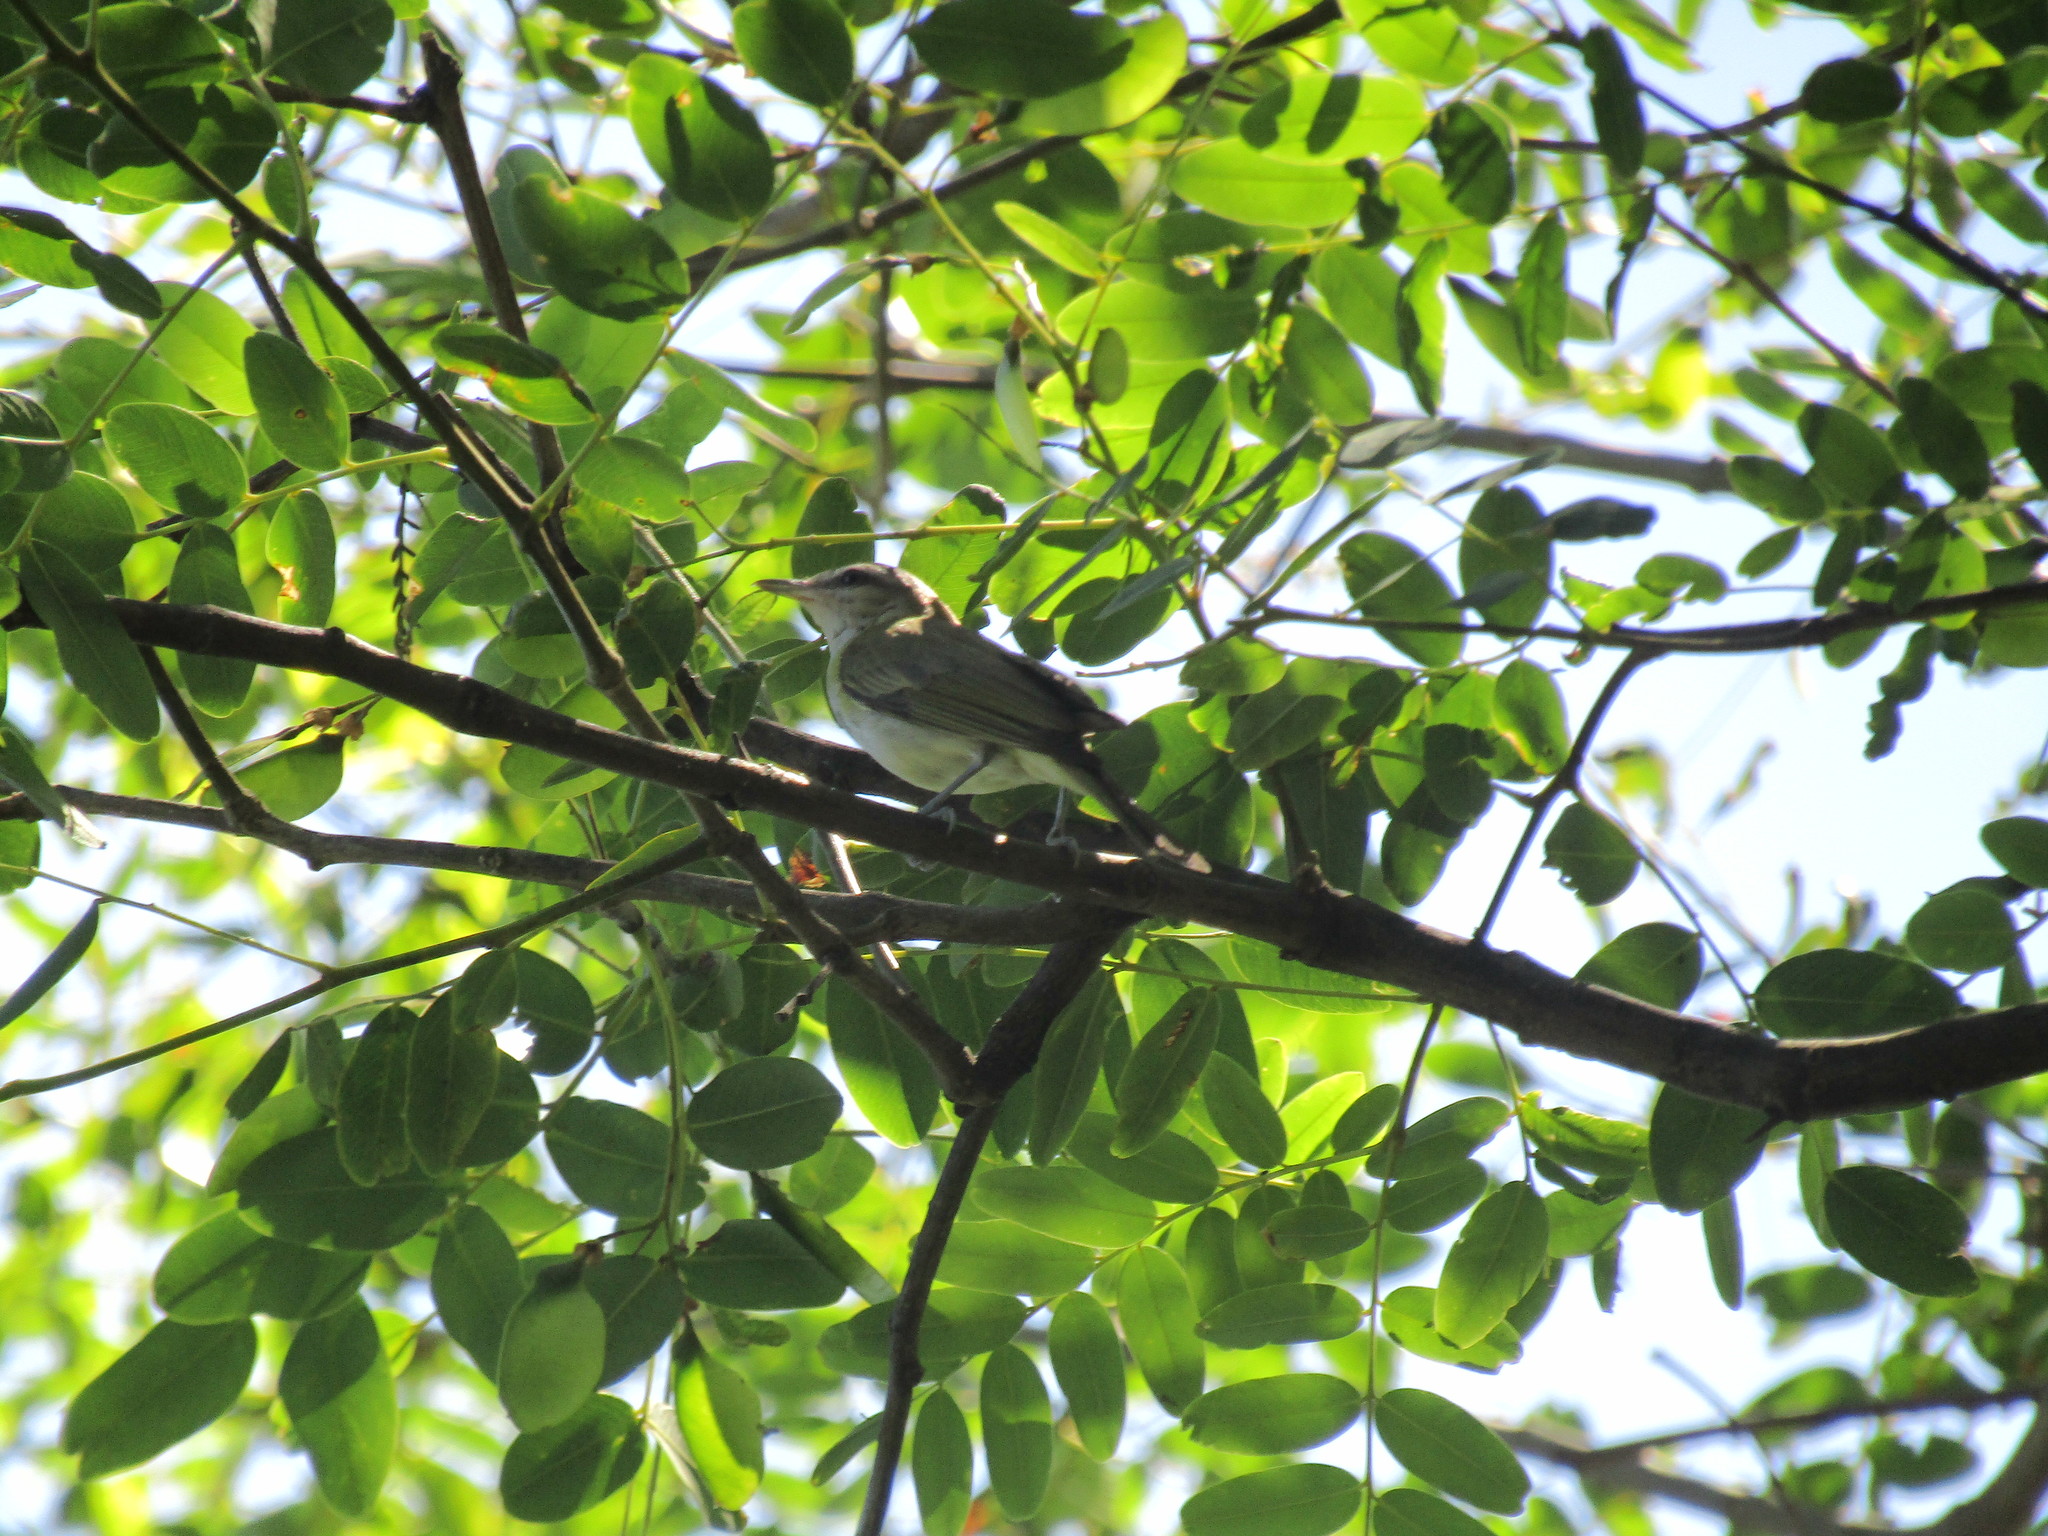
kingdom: Animalia
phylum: Chordata
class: Aves
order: Passeriformes
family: Vireonidae
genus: Vireo
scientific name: Vireo olivaceus
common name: Red-eyed vireo
